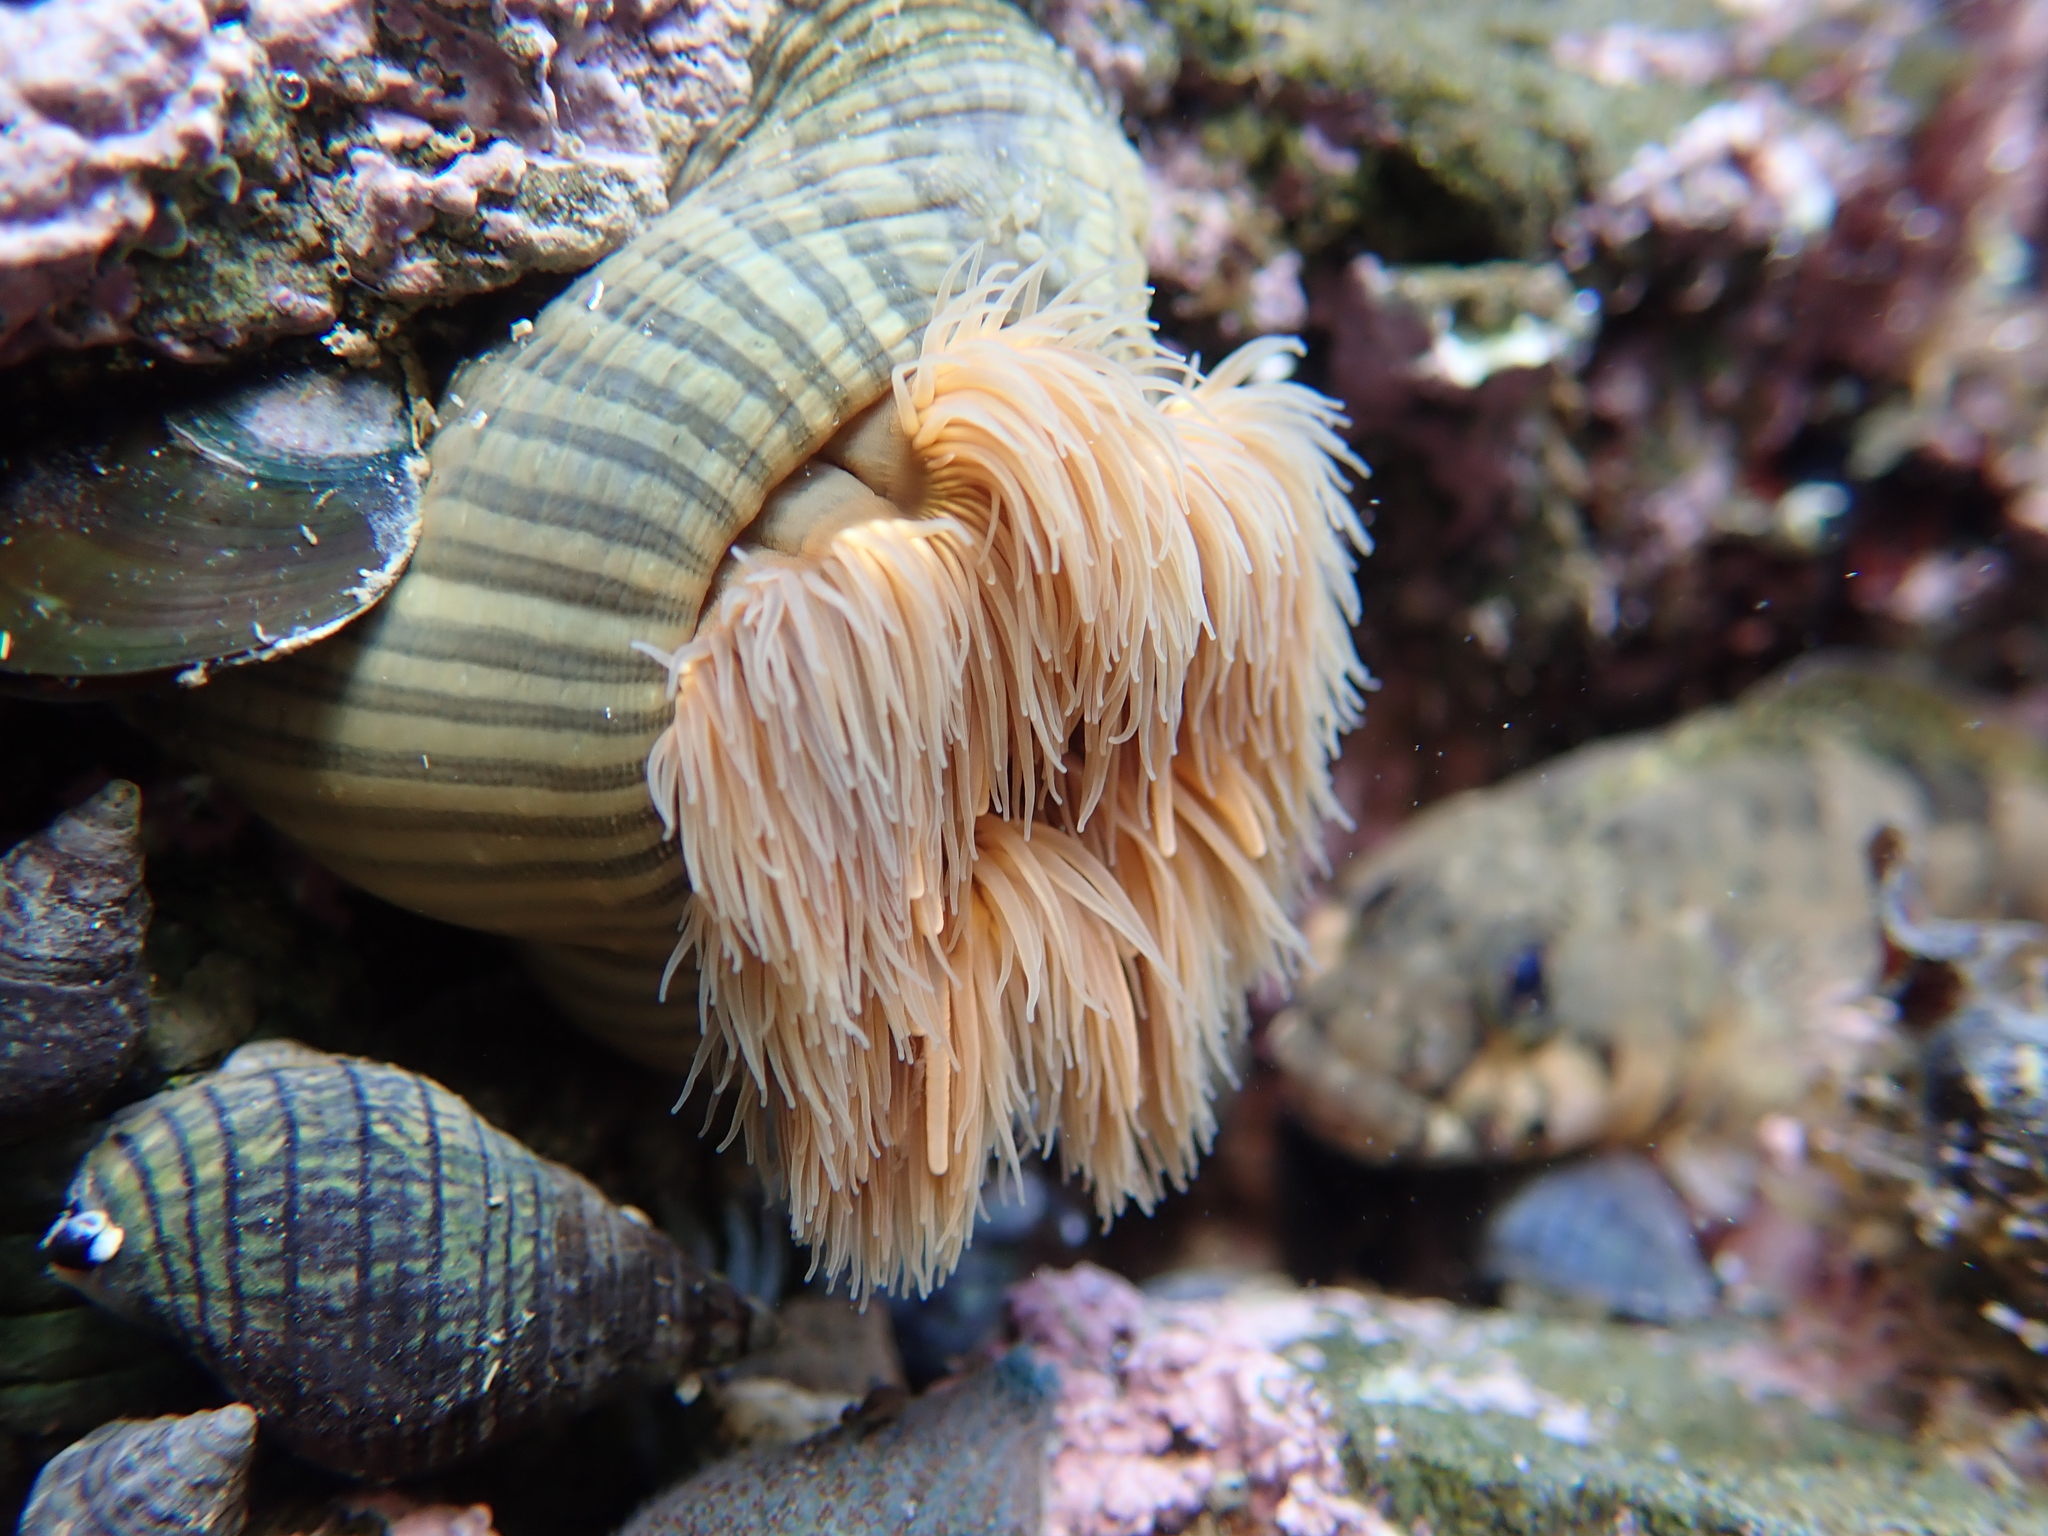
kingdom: Animalia
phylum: Cnidaria
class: Anthozoa
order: Actiniaria
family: Diadumenidae
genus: Diadumene
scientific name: Diadumene neozelanica
